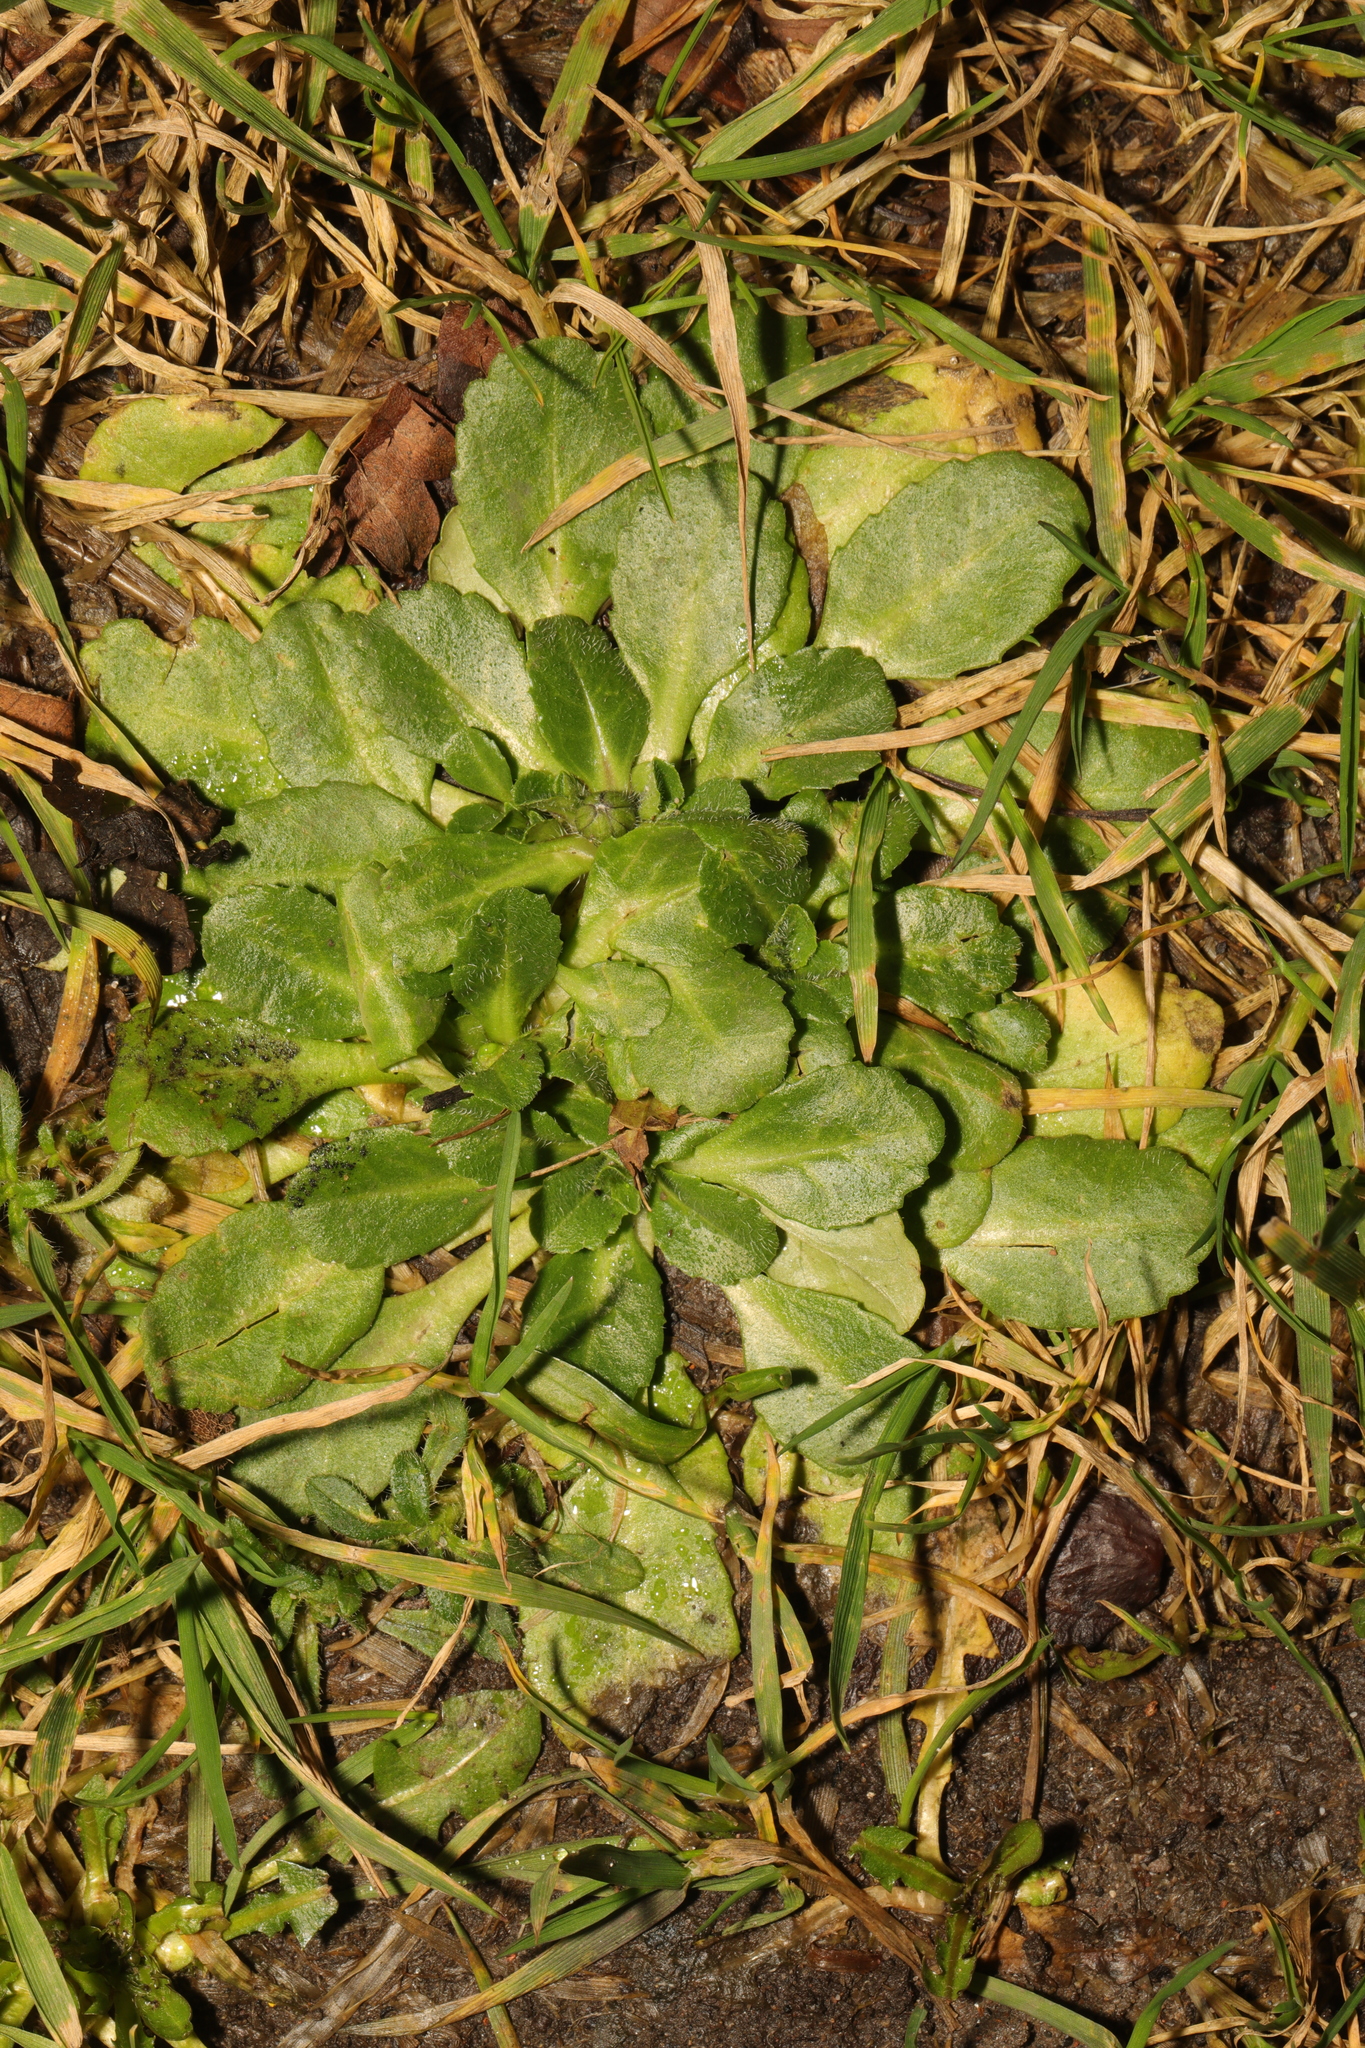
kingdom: Plantae
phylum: Tracheophyta
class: Magnoliopsida
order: Asterales
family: Asteraceae
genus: Bellis
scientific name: Bellis perennis
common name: Lawndaisy
